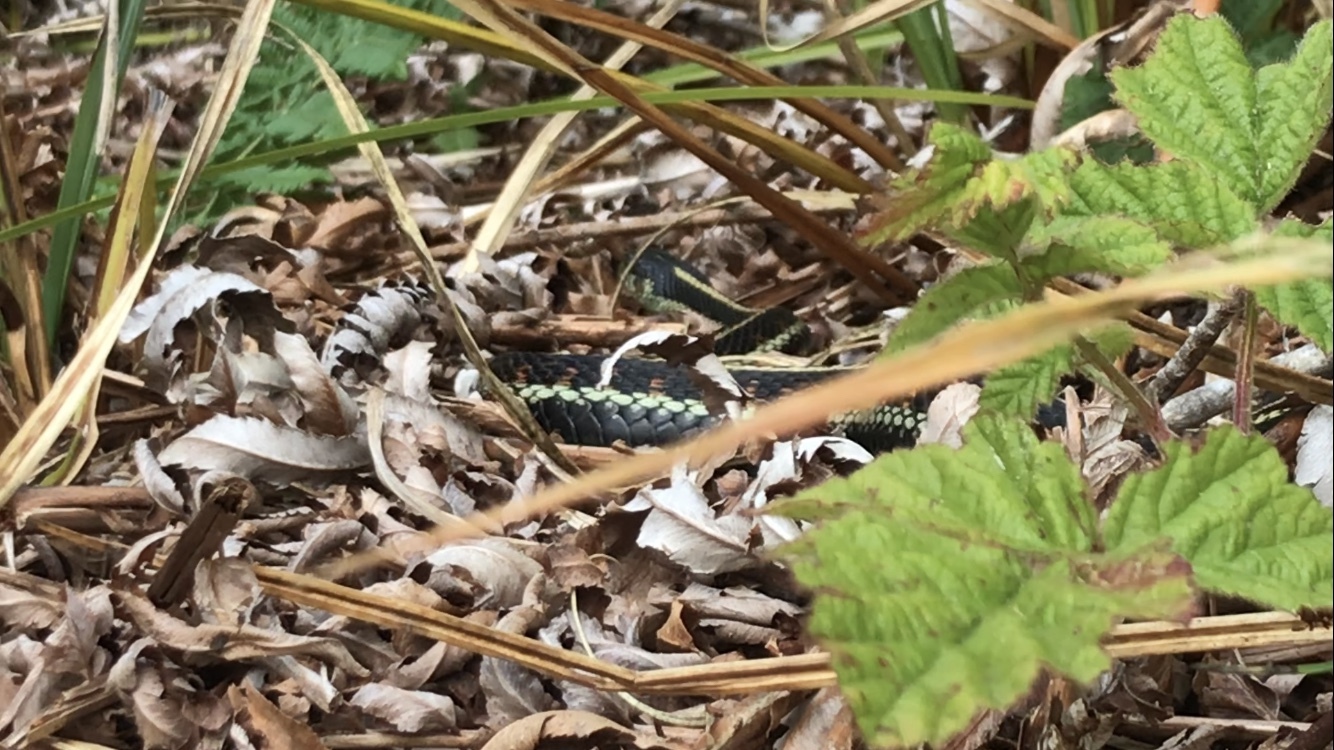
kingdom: Animalia
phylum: Chordata
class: Squamata
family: Colubridae
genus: Thamnophis
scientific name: Thamnophis sirtalis
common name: Common garter snake
